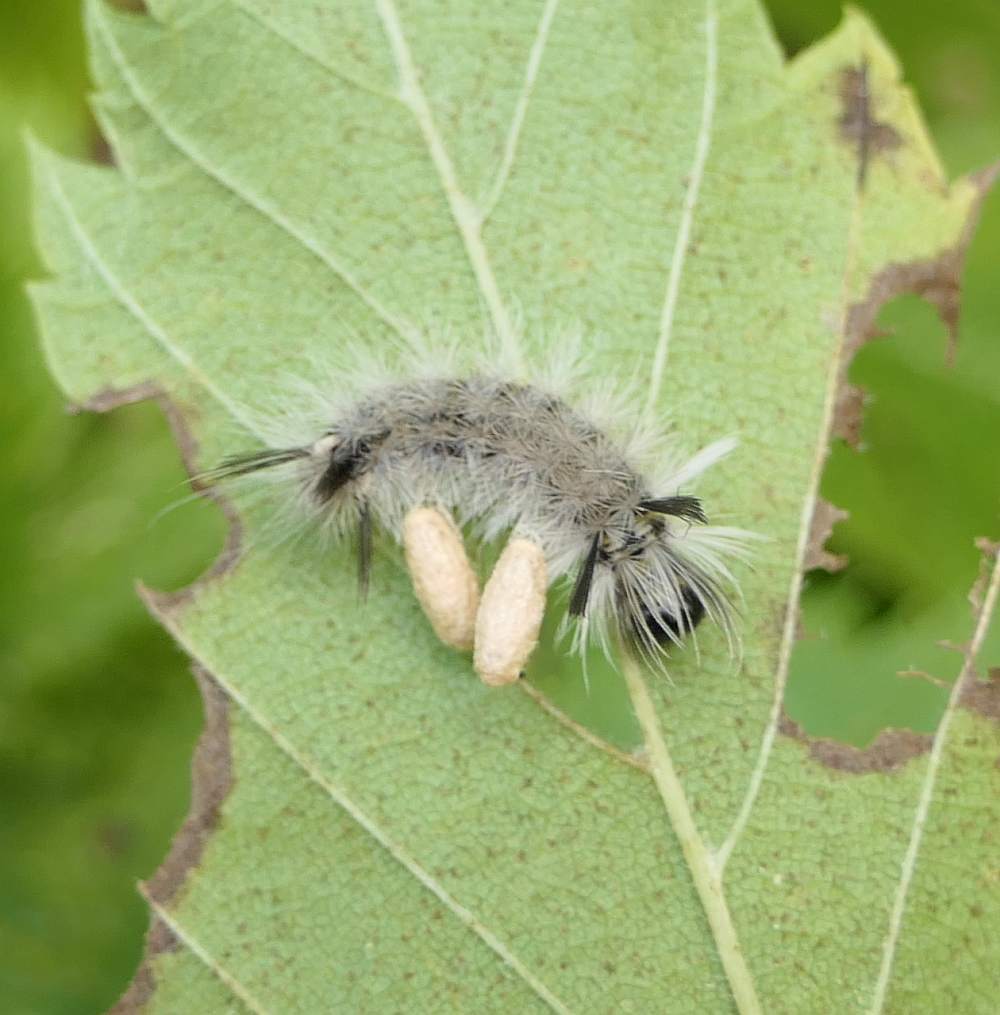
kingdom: Animalia
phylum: Arthropoda
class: Insecta
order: Lepidoptera
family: Erebidae
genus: Halysidota
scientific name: Halysidota tessellaris
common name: Banded tussock moth
